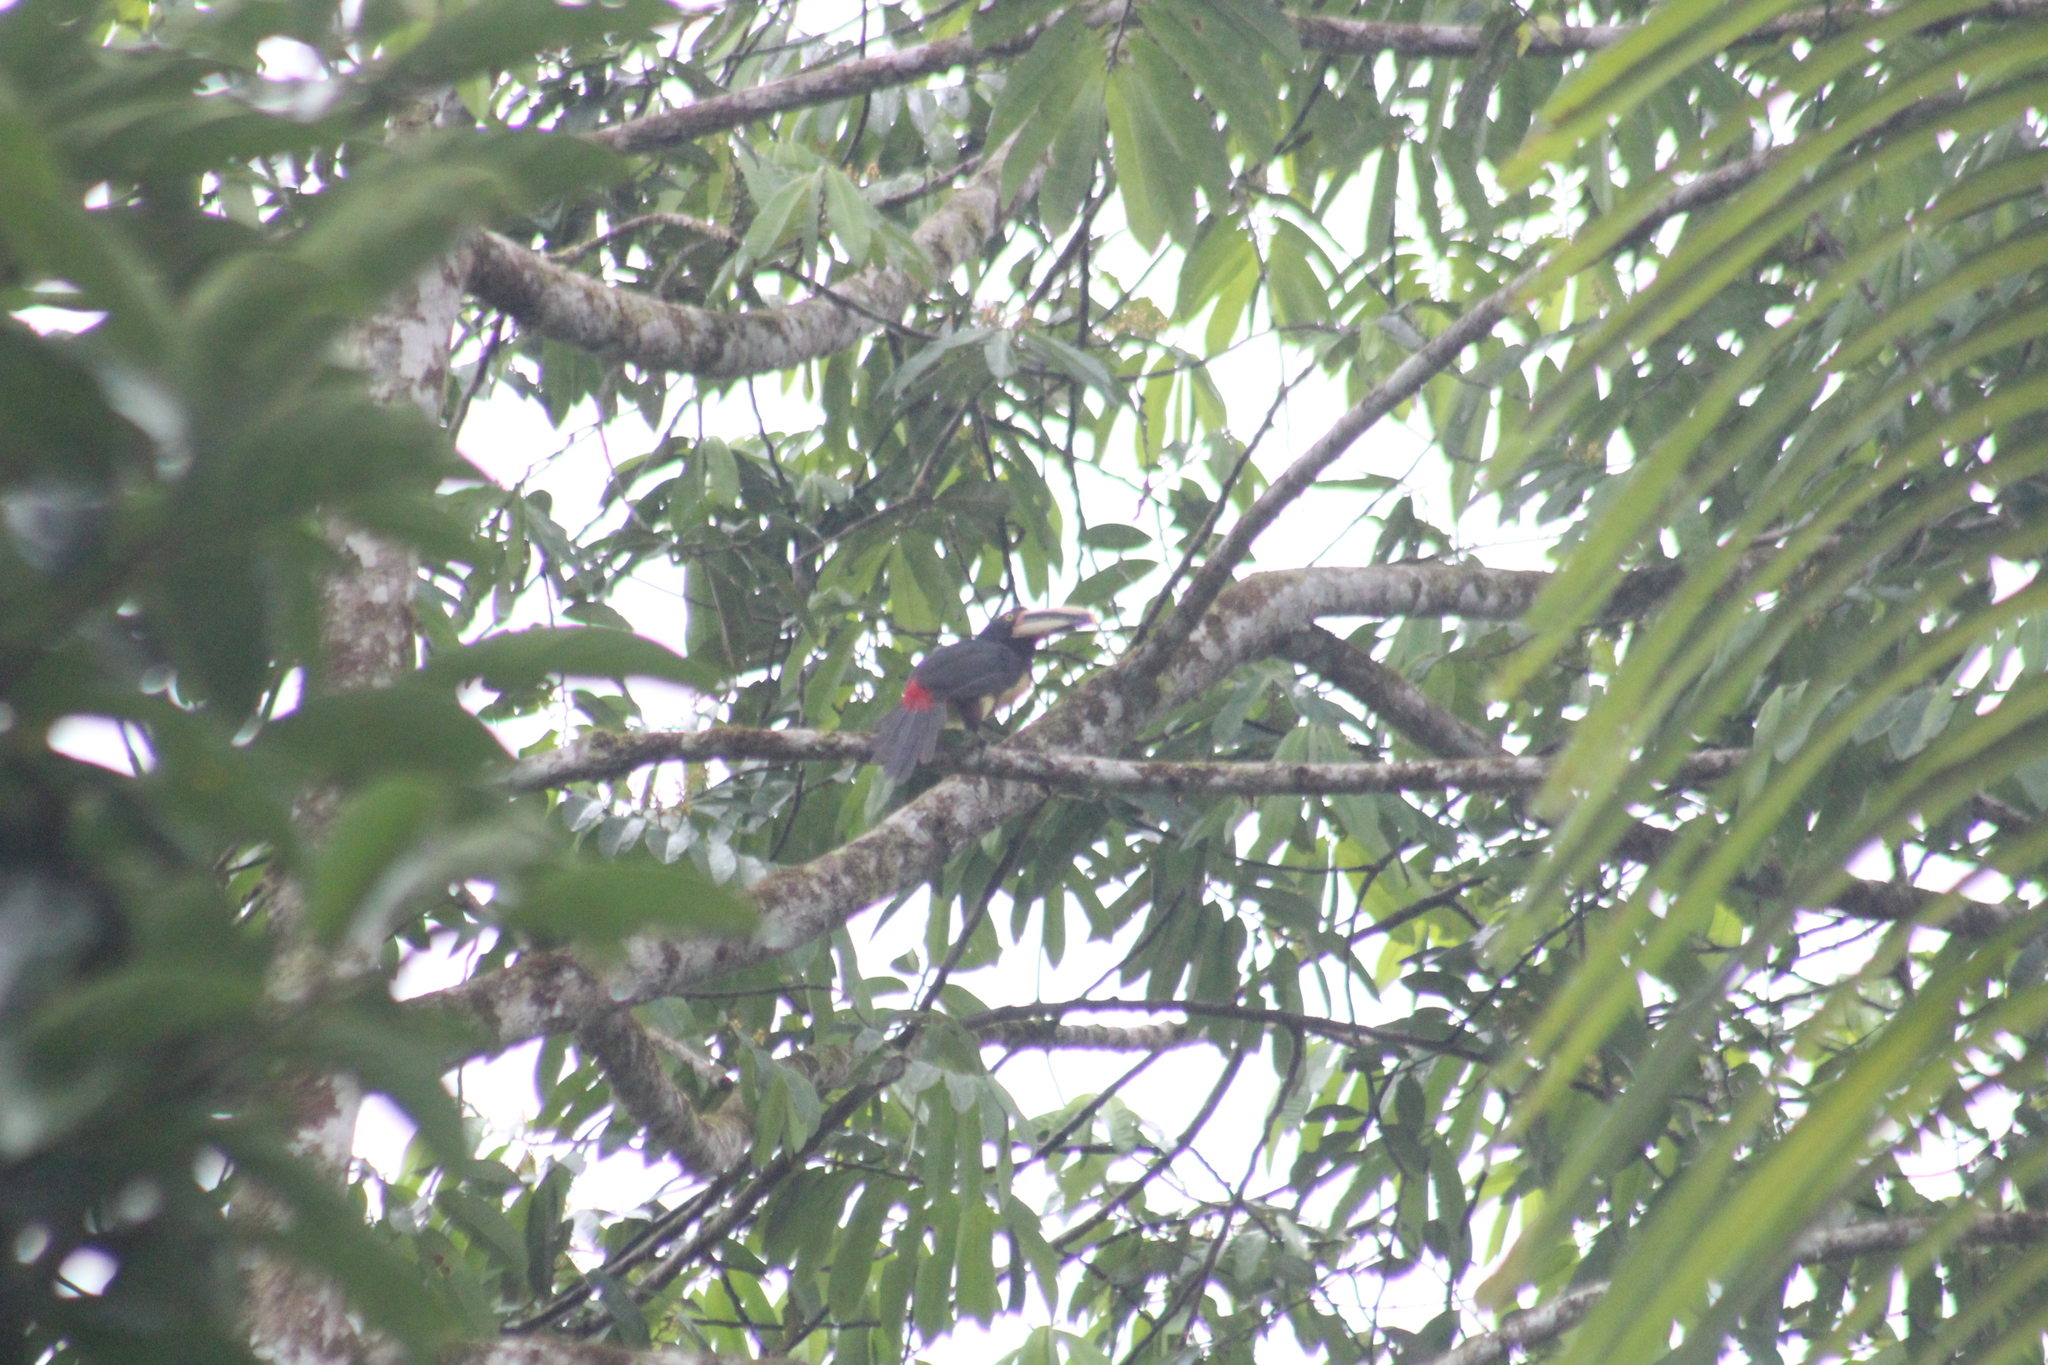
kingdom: Animalia
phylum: Chordata
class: Aves
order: Piciformes
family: Ramphastidae
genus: Pteroglossus
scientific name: Pteroglossus torquatus
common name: Collared aracari
